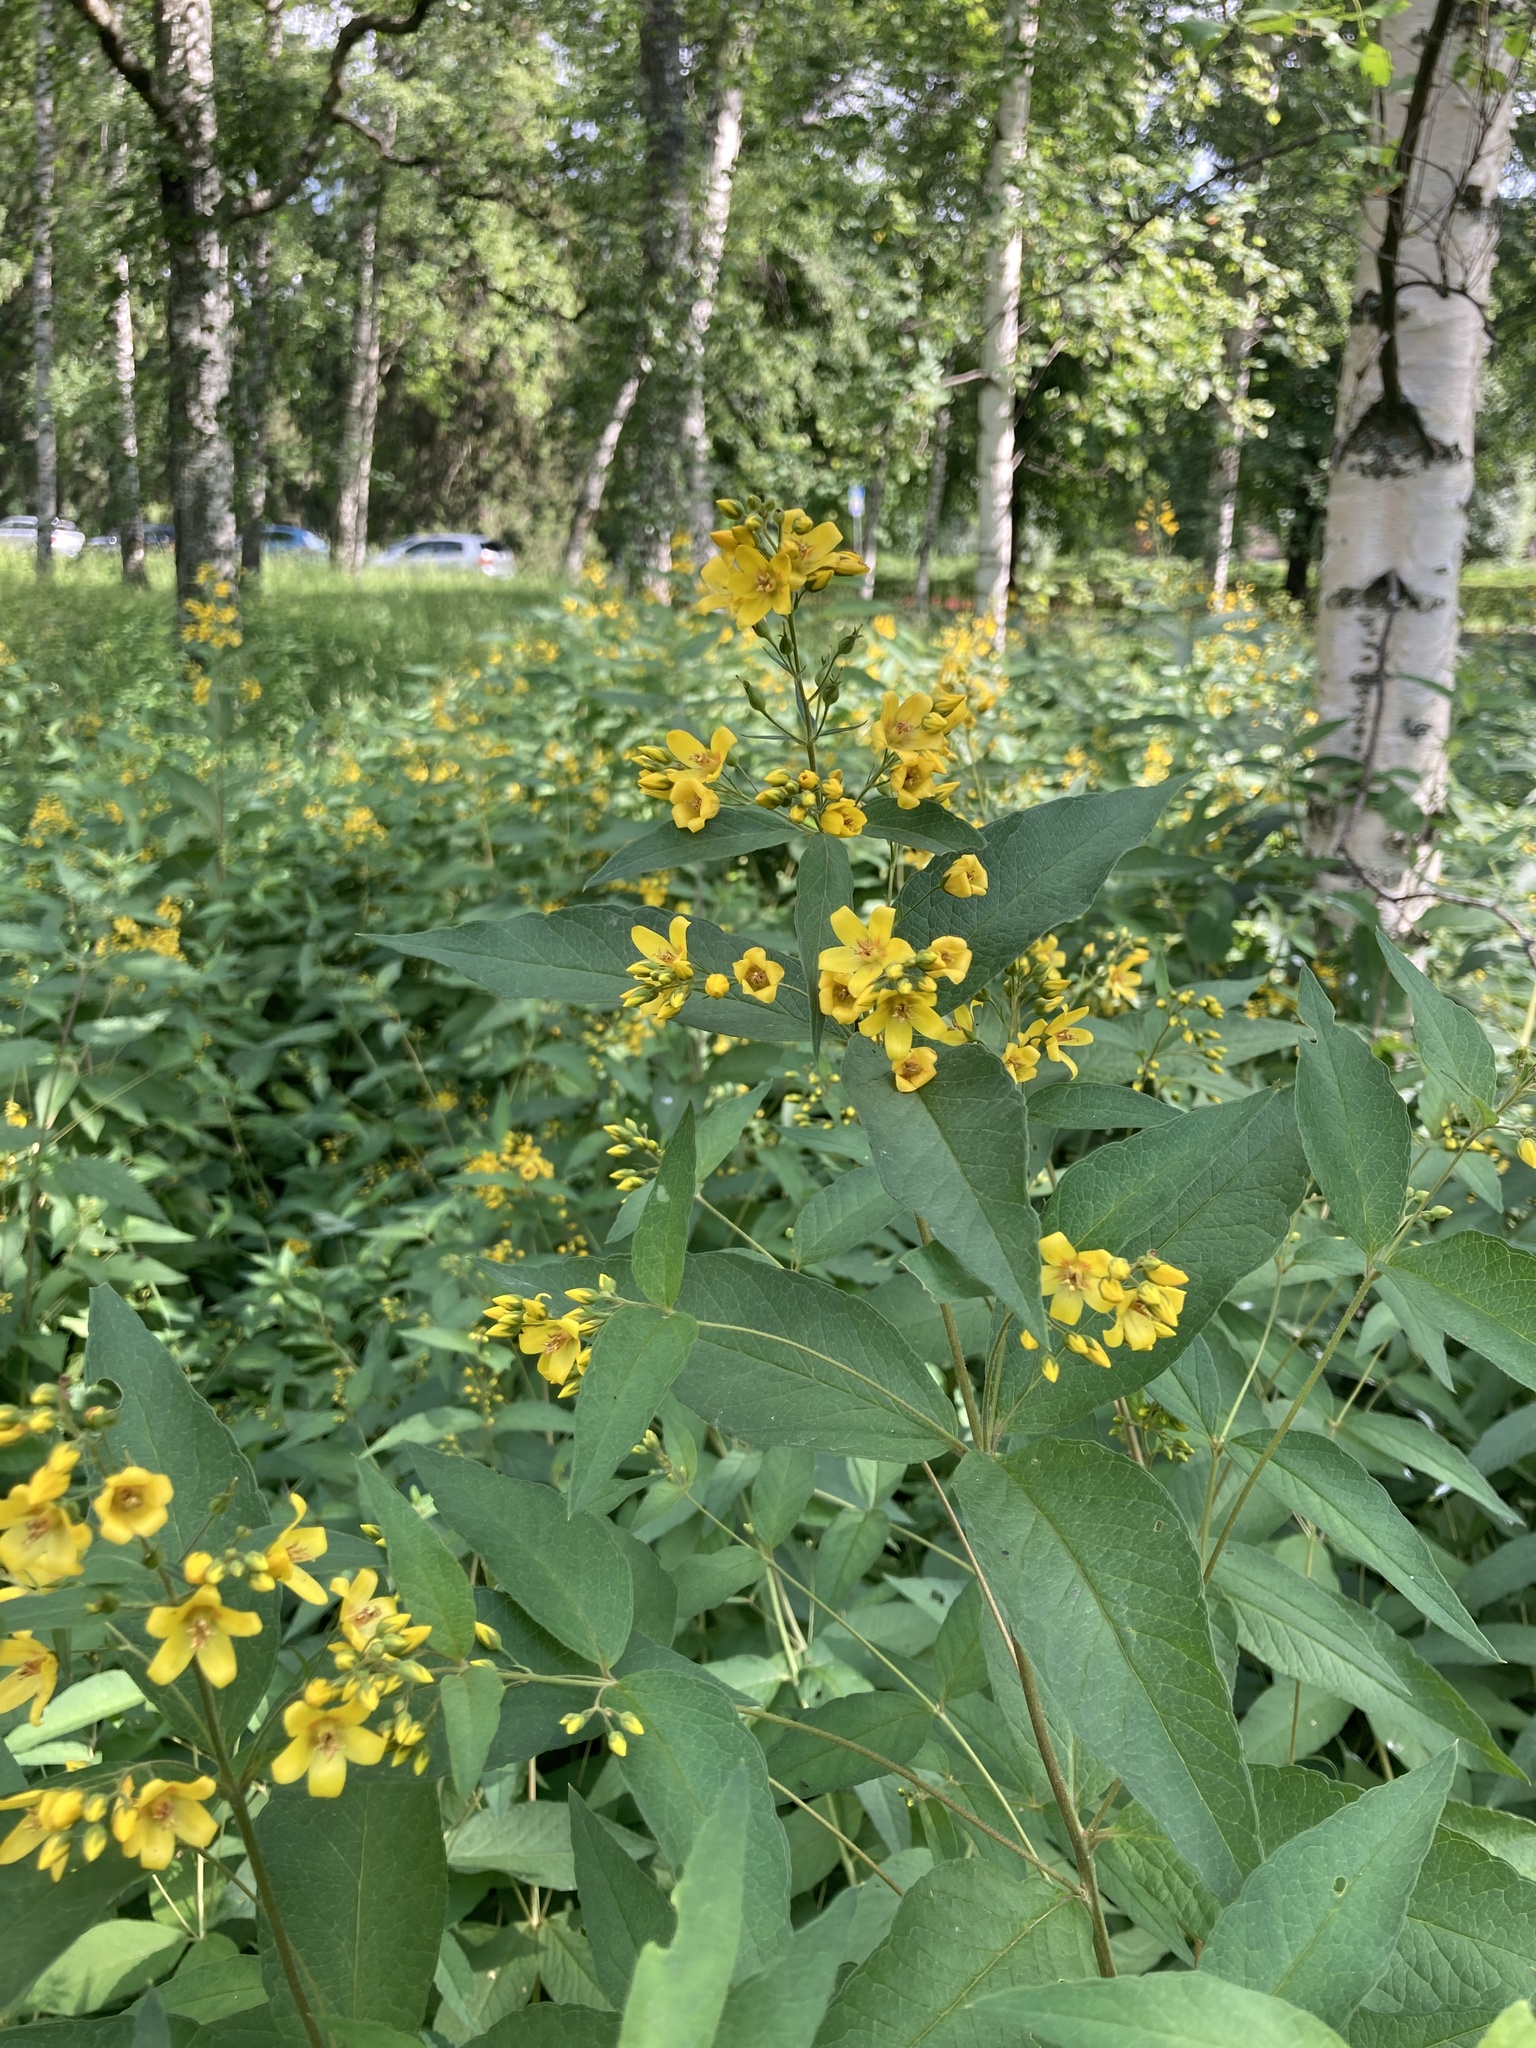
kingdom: Plantae
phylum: Tracheophyta
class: Magnoliopsida
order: Ericales
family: Primulaceae
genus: Lysimachia
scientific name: Lysimachia vulgaris
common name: Yellow loosestrife
